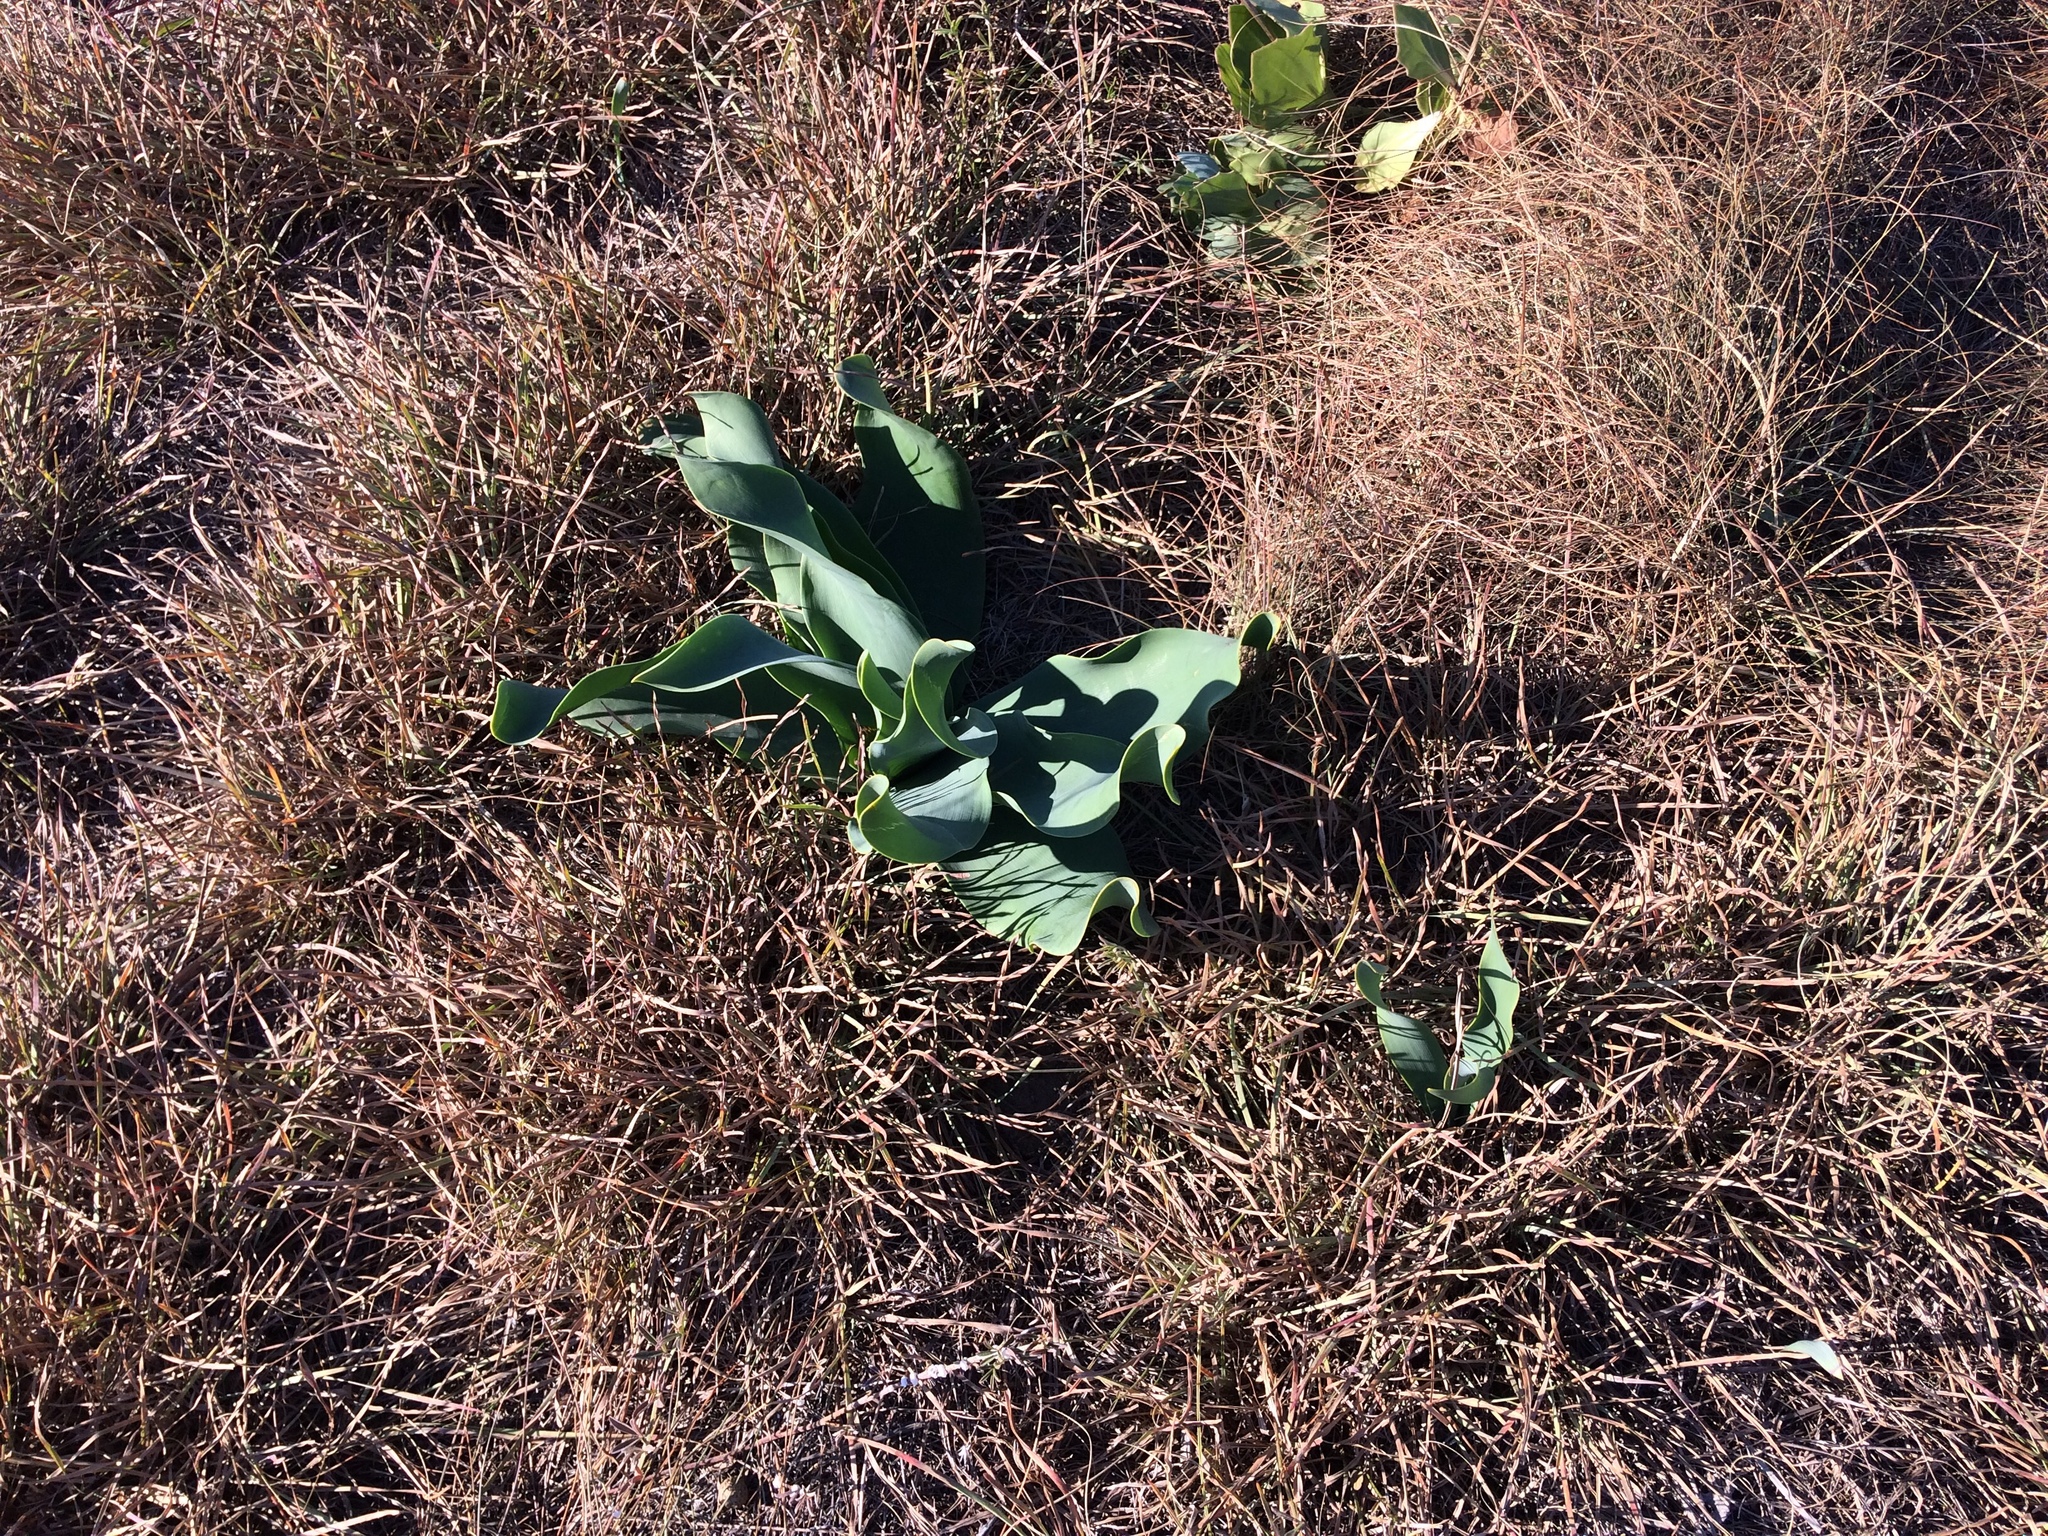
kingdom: Plantae
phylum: Tracheophyta
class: Liliopsida
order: Asparagales
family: Amaryllidaceae
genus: Brunsvigia
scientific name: Brunsvigia litoralis
